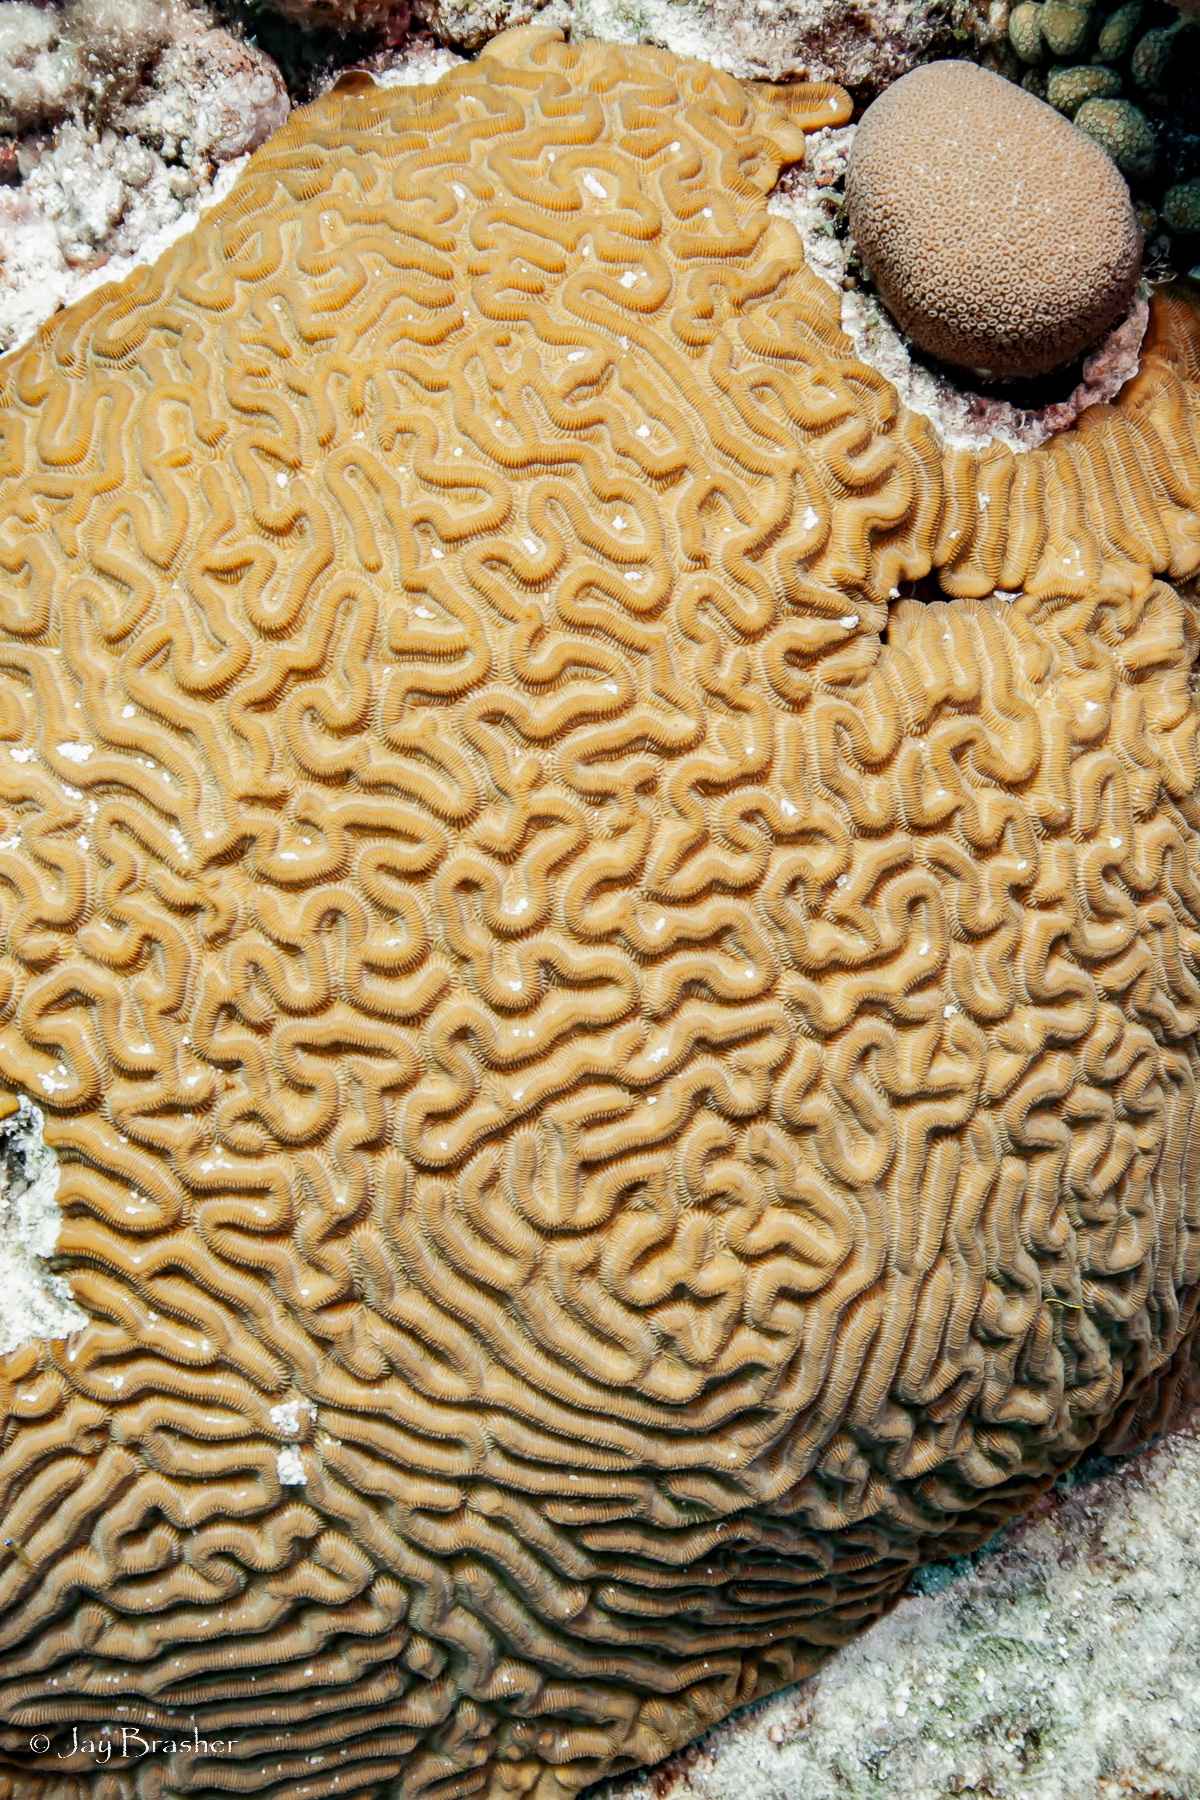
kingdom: Animalia
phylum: Cnidaria
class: Anthozoa
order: Scleractinia
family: Faviidae
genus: Pseudodiploria
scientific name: Pseudodiploria strigosa
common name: Symmetrical brain coral
